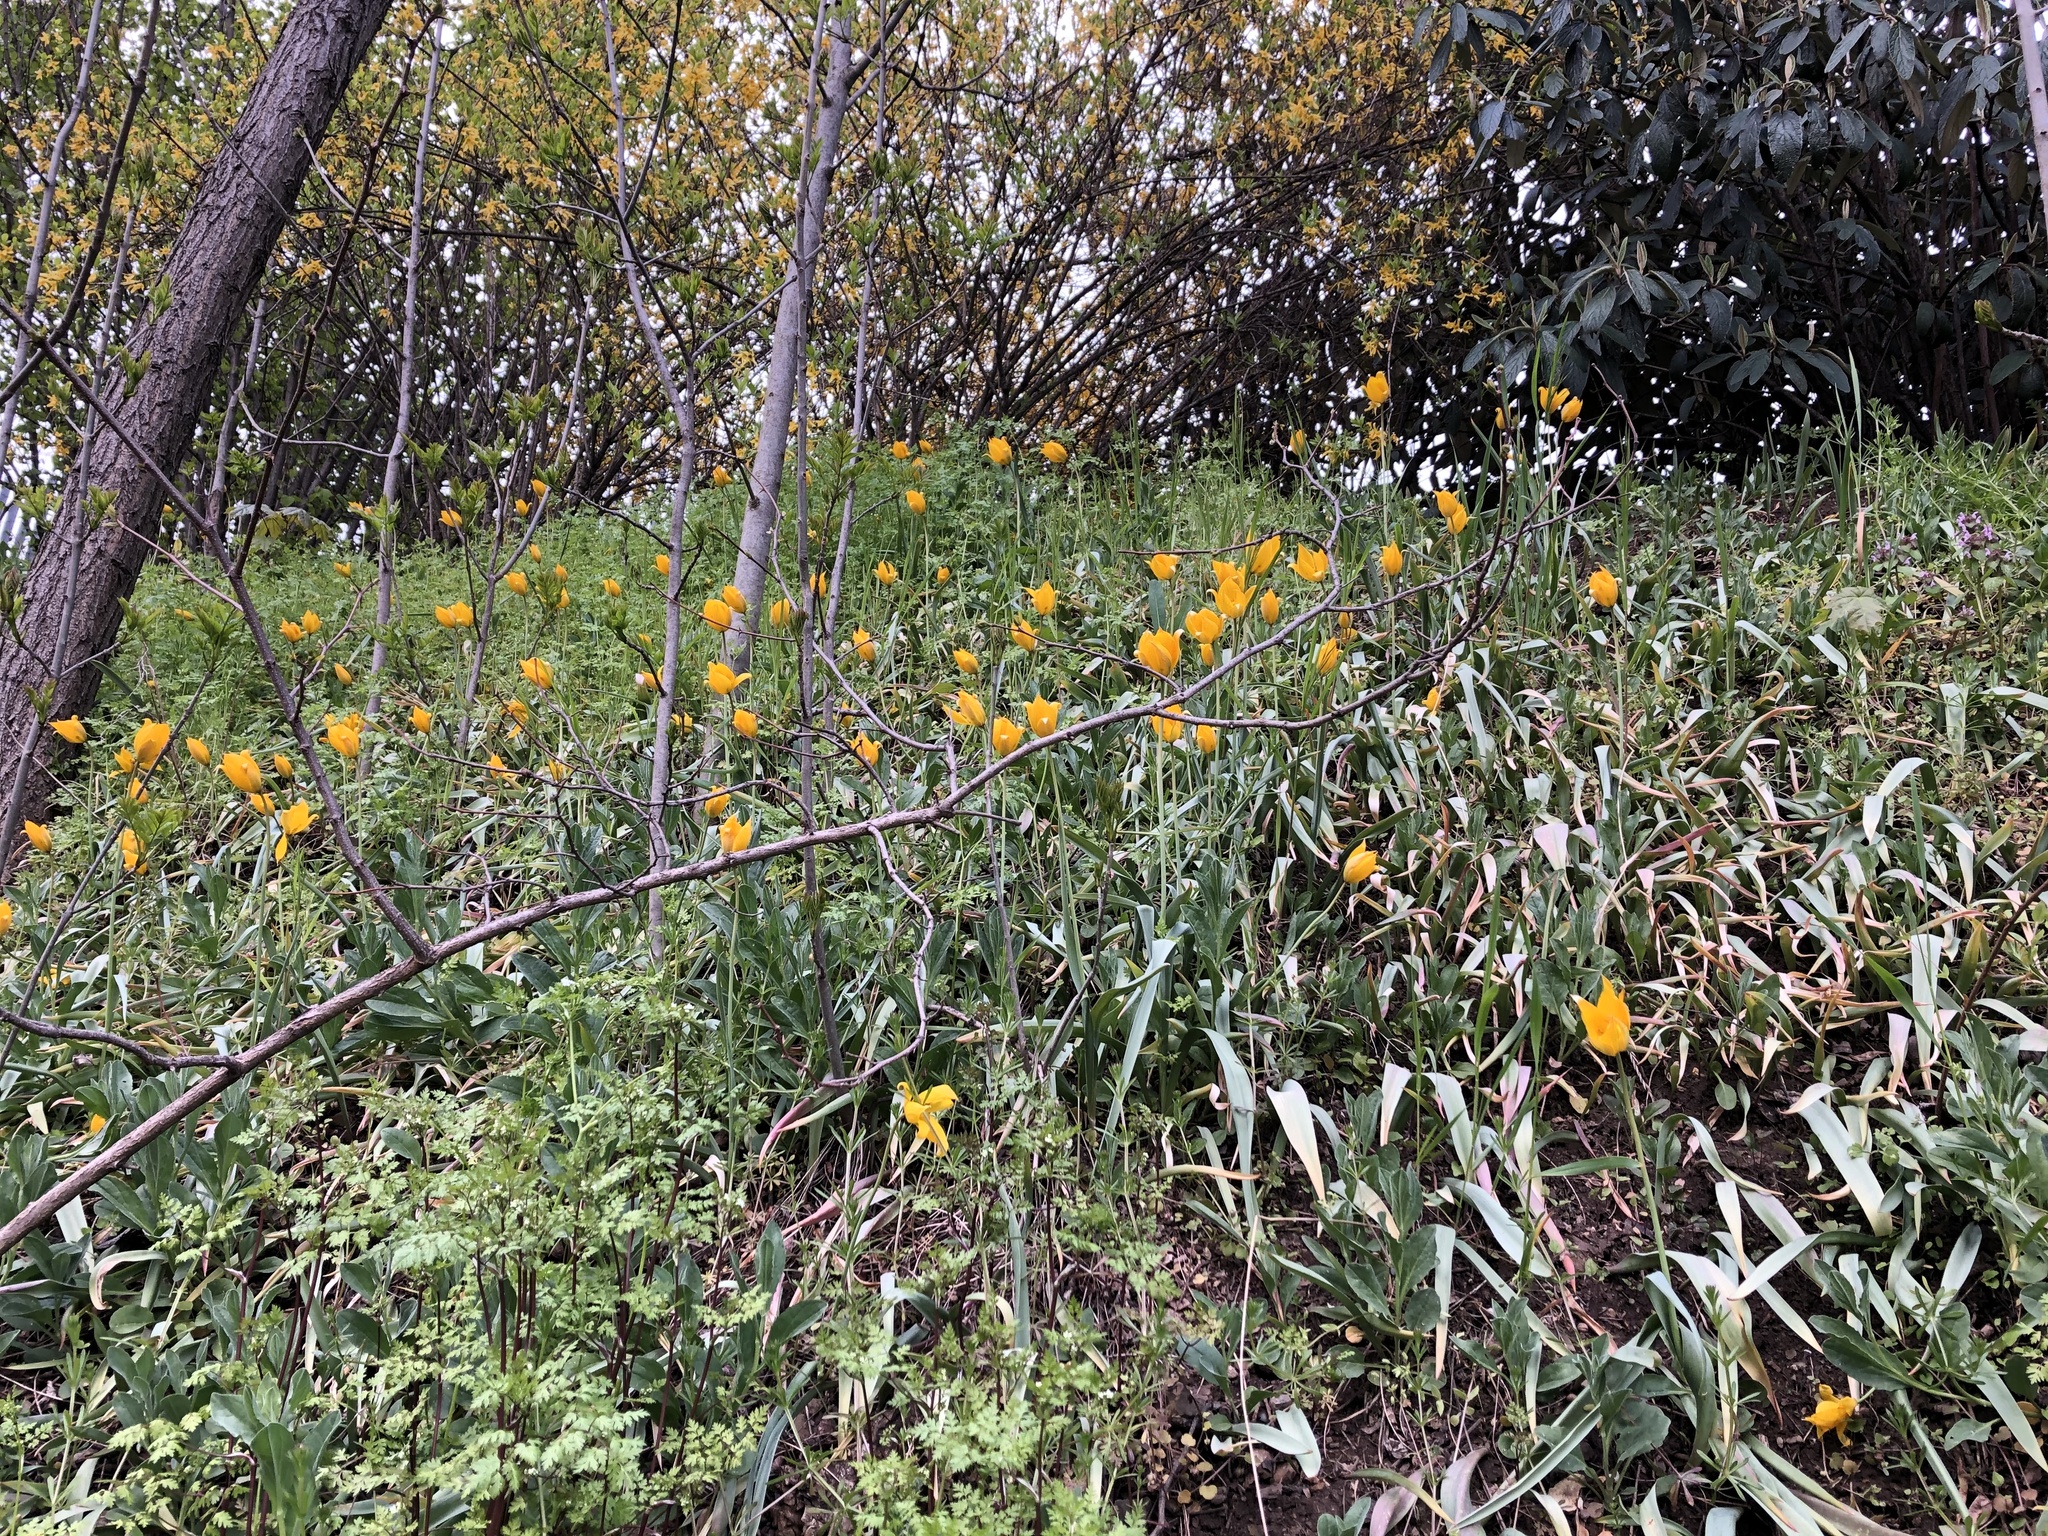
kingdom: Plantae
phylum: Tracheophyta
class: Liliopsida
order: Liliales
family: Liliaceae
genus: Tulipa
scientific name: Tulipa sylvestris
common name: Wild tulip
